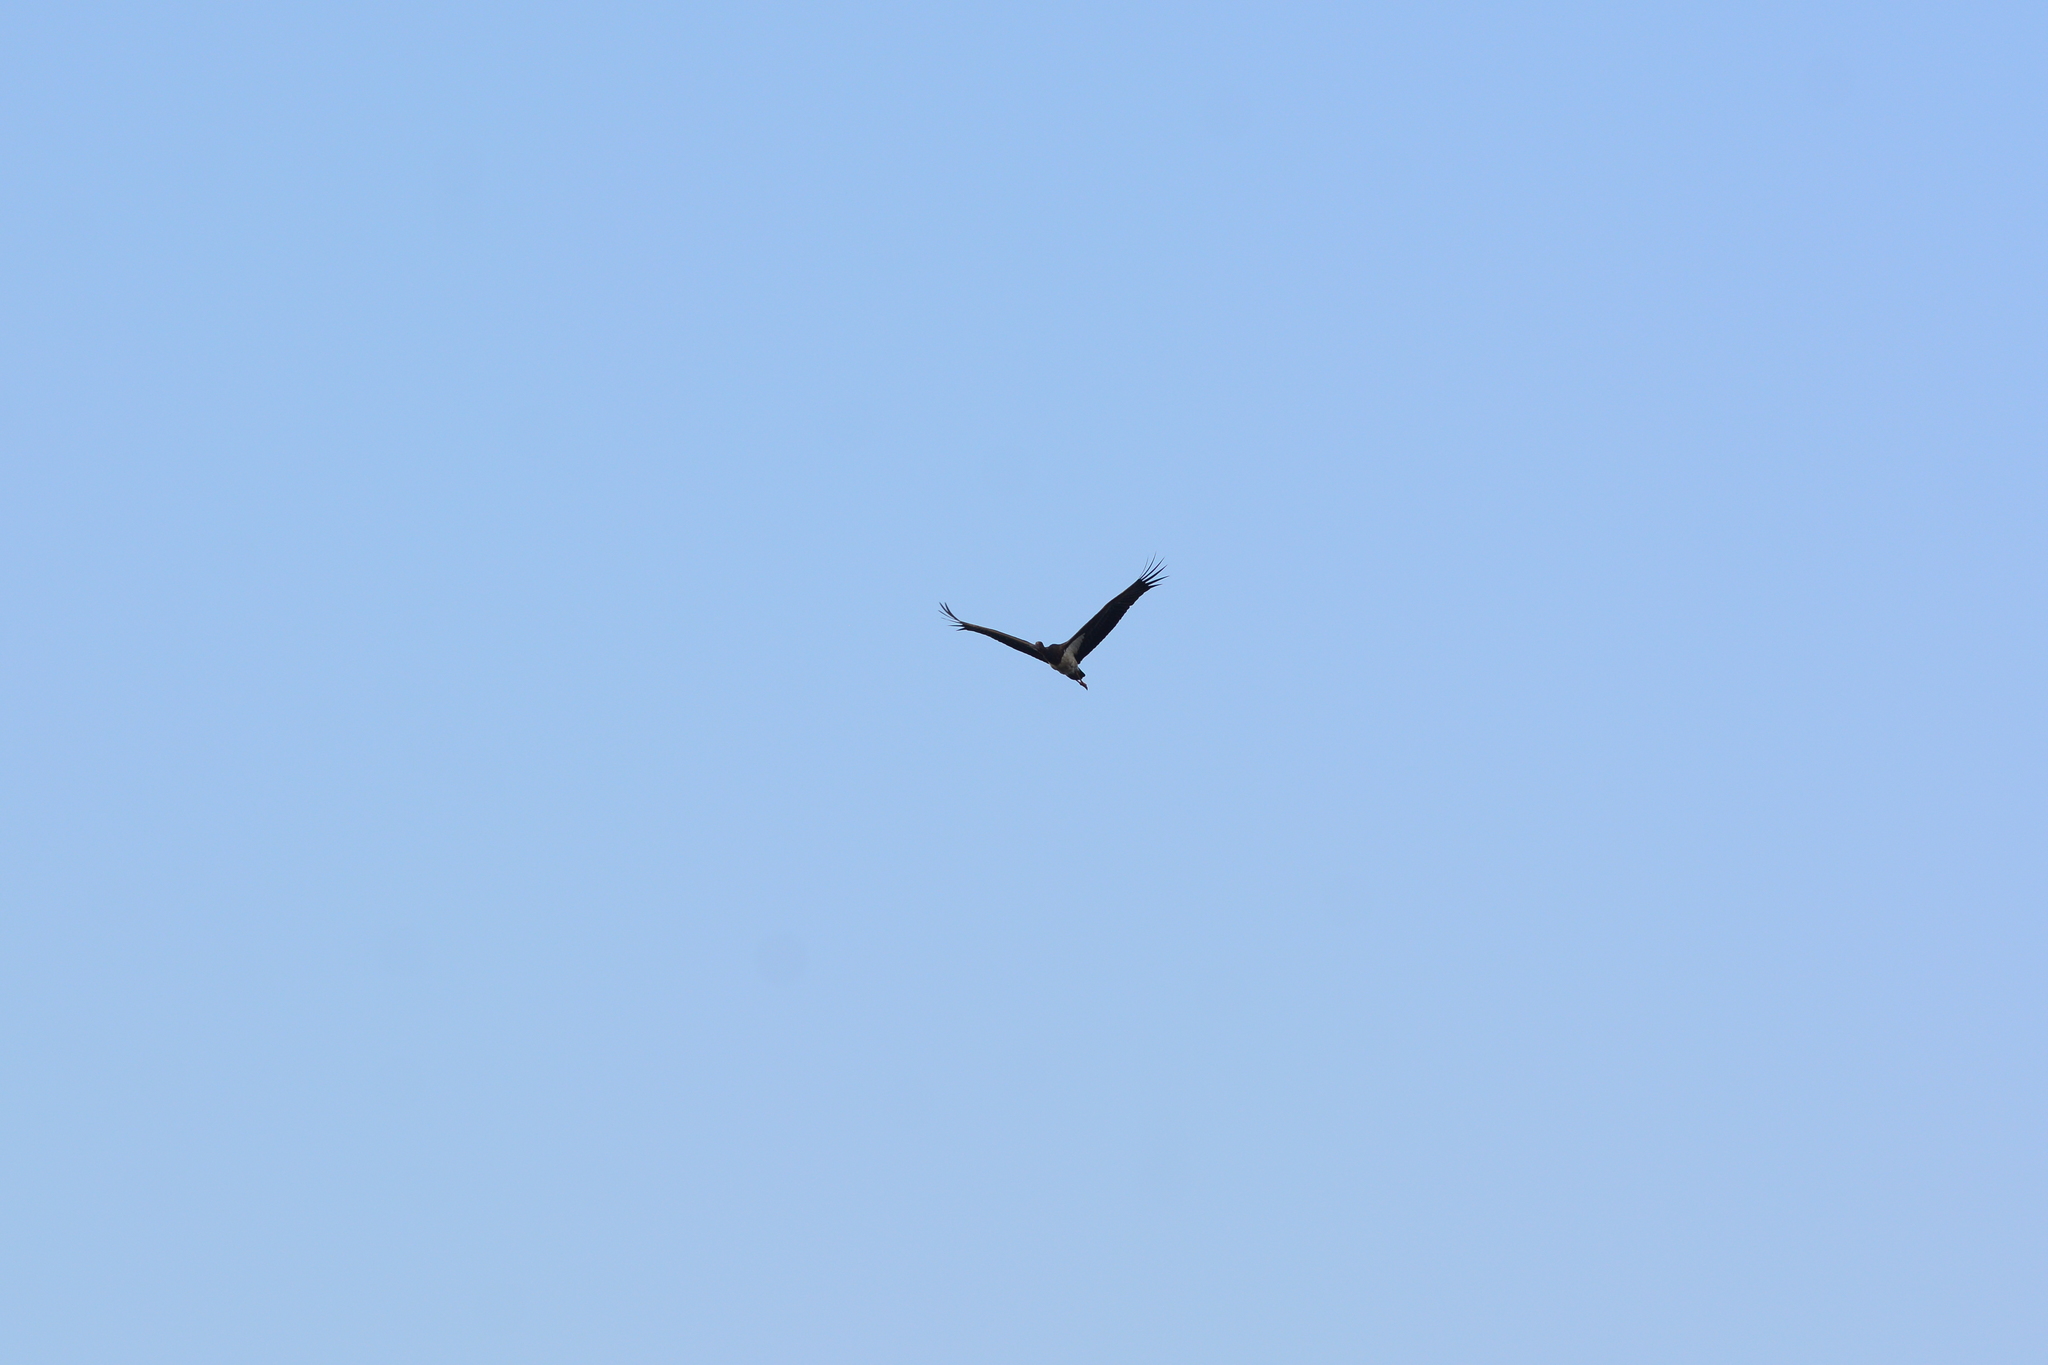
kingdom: Animalia
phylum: Chordata
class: Aves
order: Ciconiiformes
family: Ciconiidae
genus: Ciconia
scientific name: Ciconia nigra
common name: Black stork
